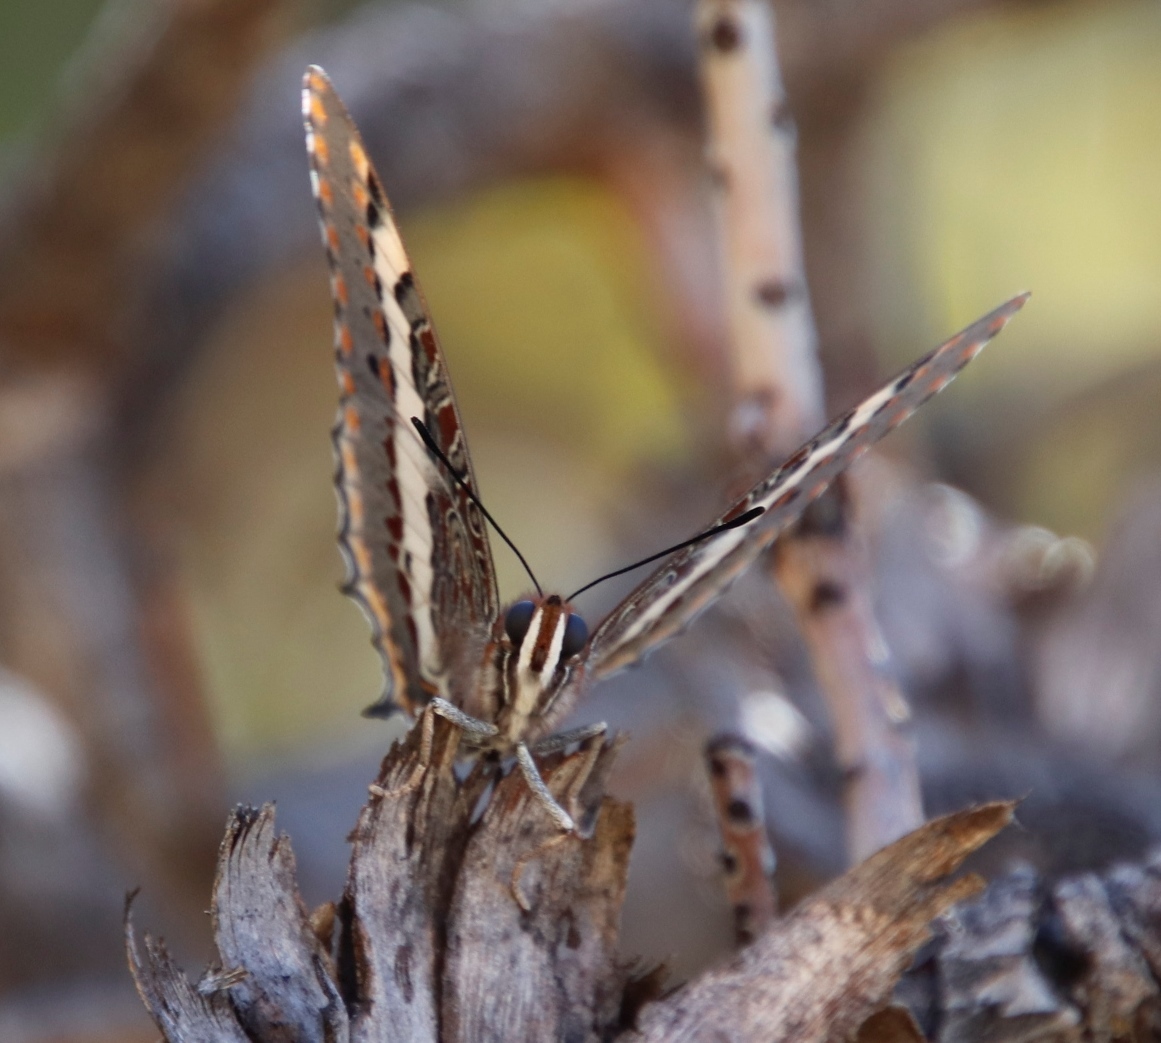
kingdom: Animalia
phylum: Arthropoda
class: Insecta
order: Lepidoptera
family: Nymphalidae
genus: Charaxes
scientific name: Charaxes pelias
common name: Protea charaxes
